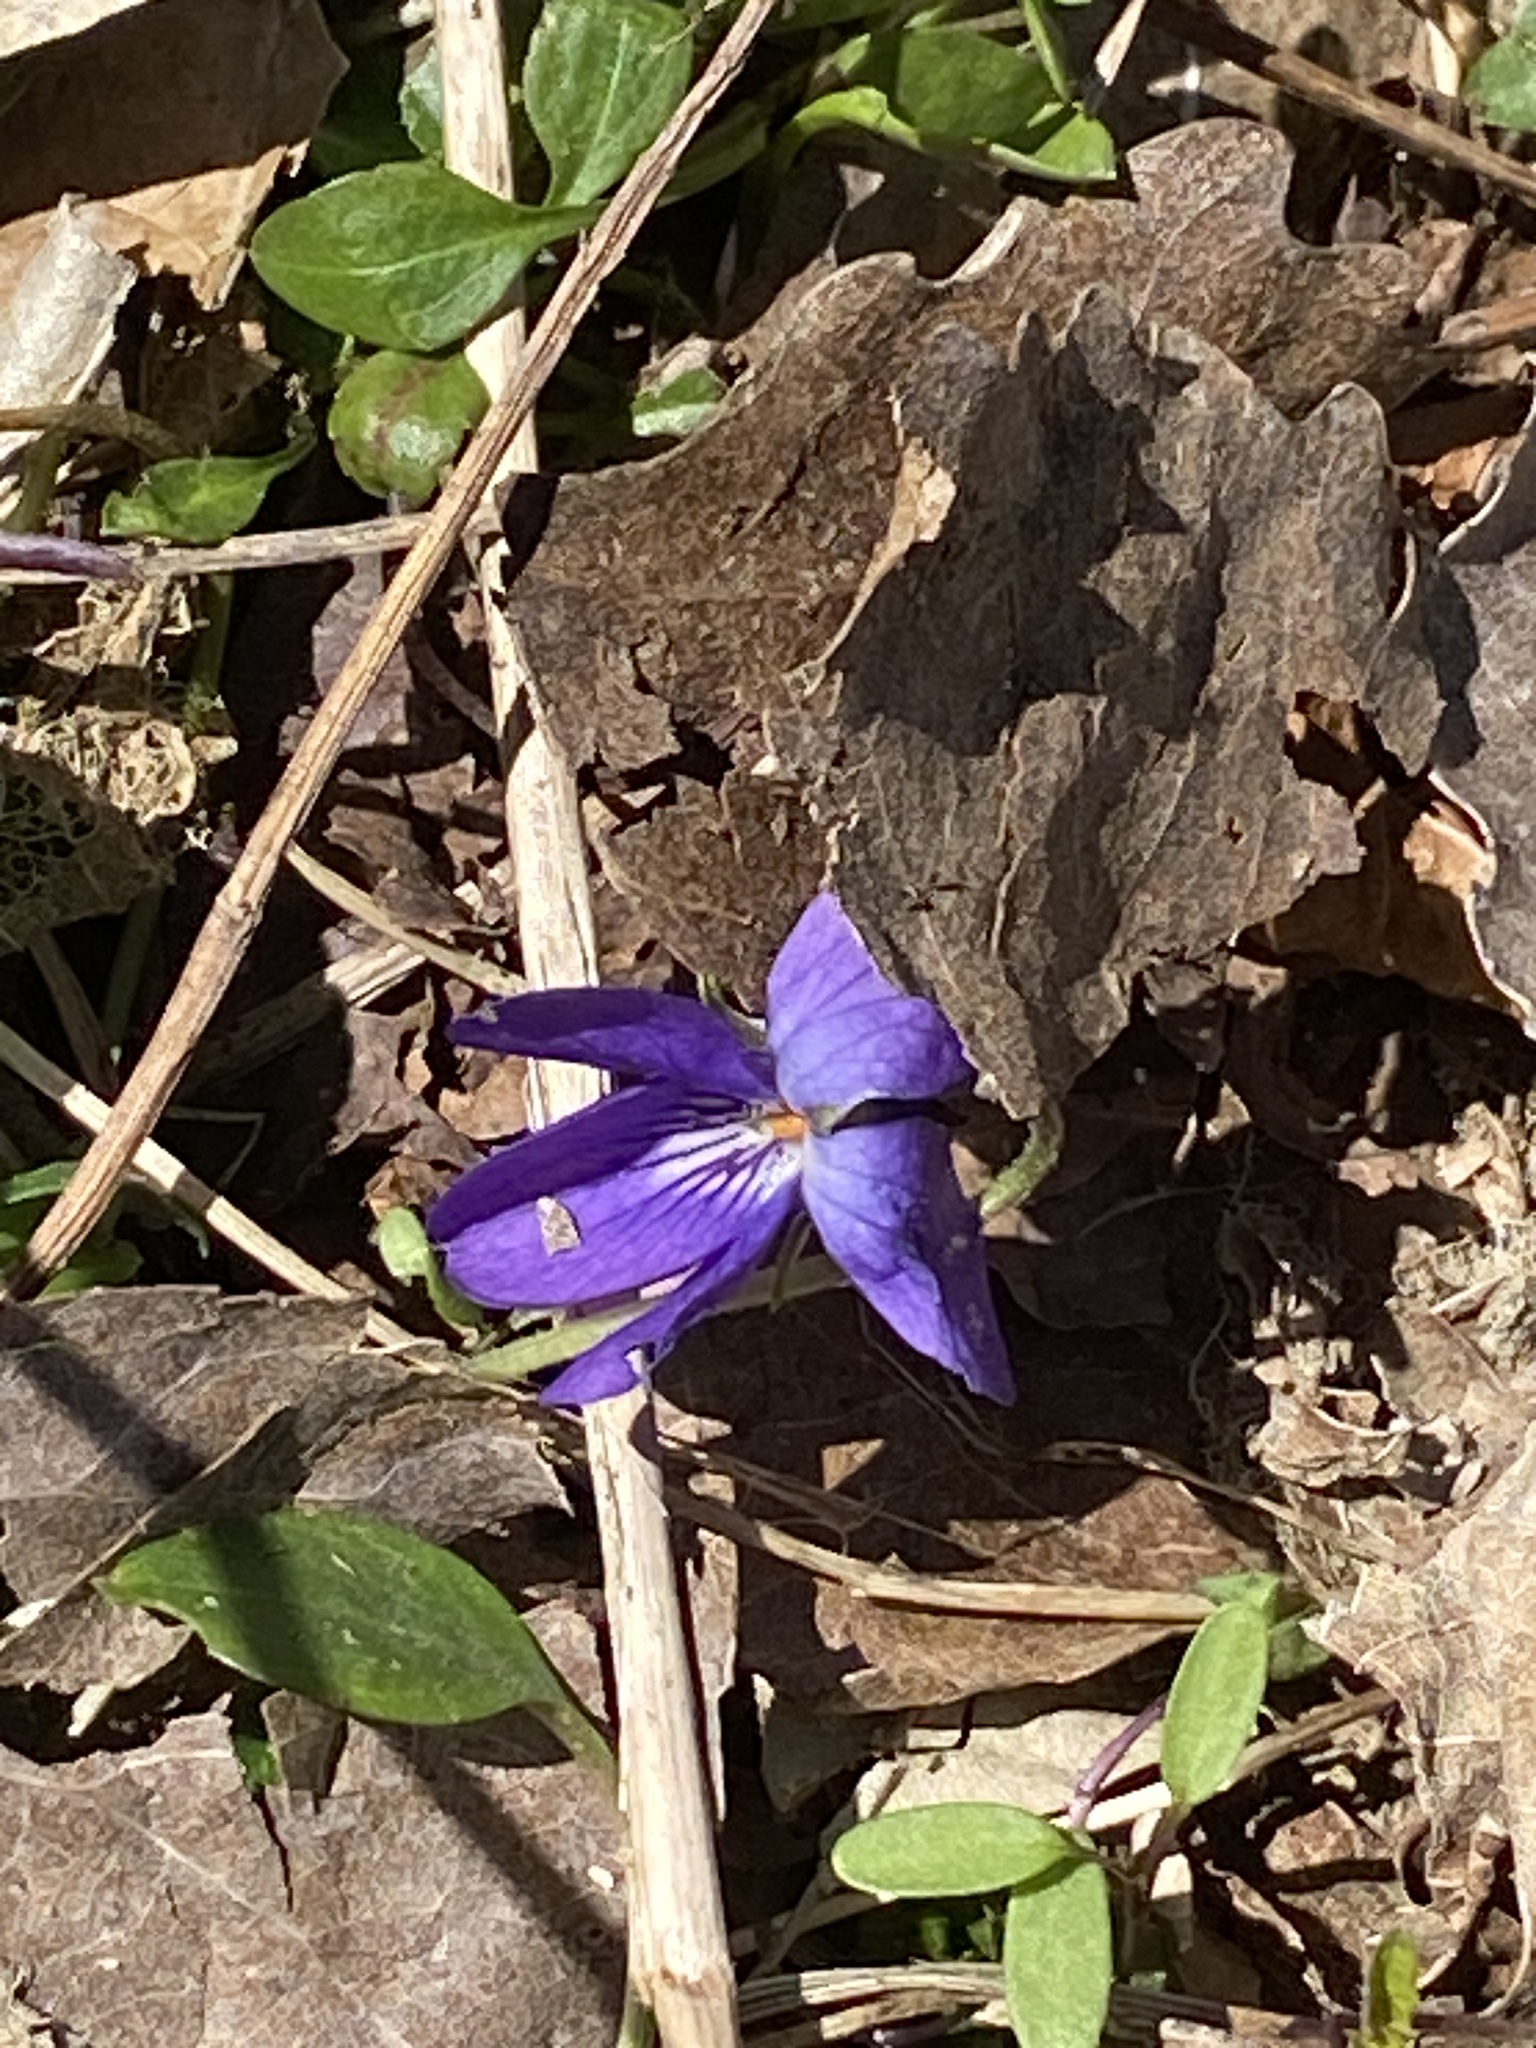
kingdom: Plantae
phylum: Tracheophyta
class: Magnoliopsida
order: Malpighiales
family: Violaceae
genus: Viola
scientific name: Viola odorata
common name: Sweet violet
